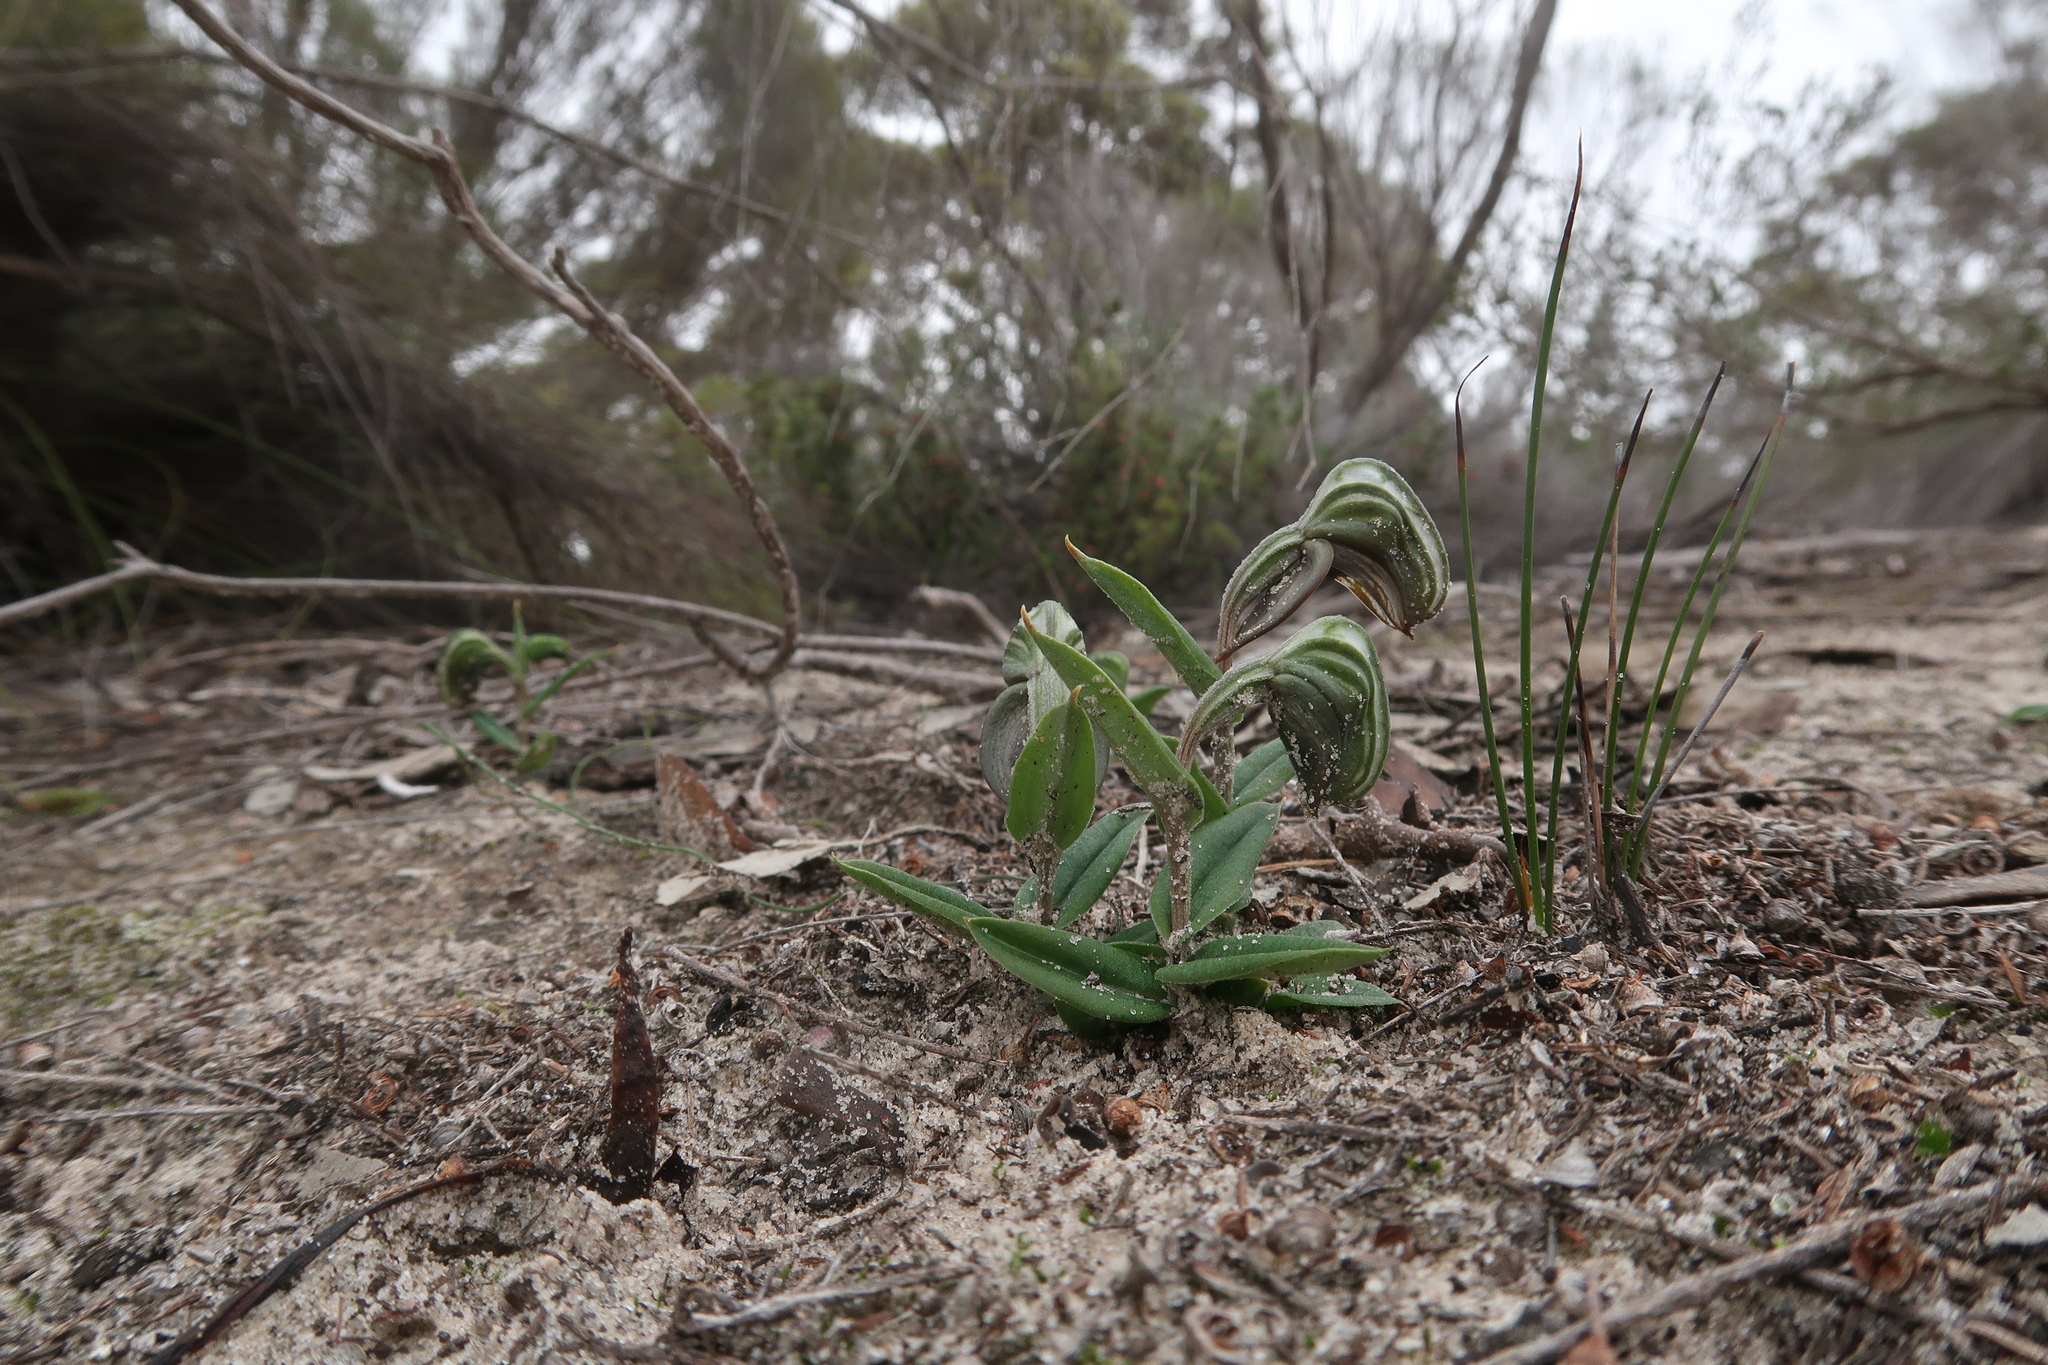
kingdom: Plantae
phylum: Tracheophyta
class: Liliopsida
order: Asparagales
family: Orchidaceae
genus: Pterostylis
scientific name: Pterostylis sanguinea
